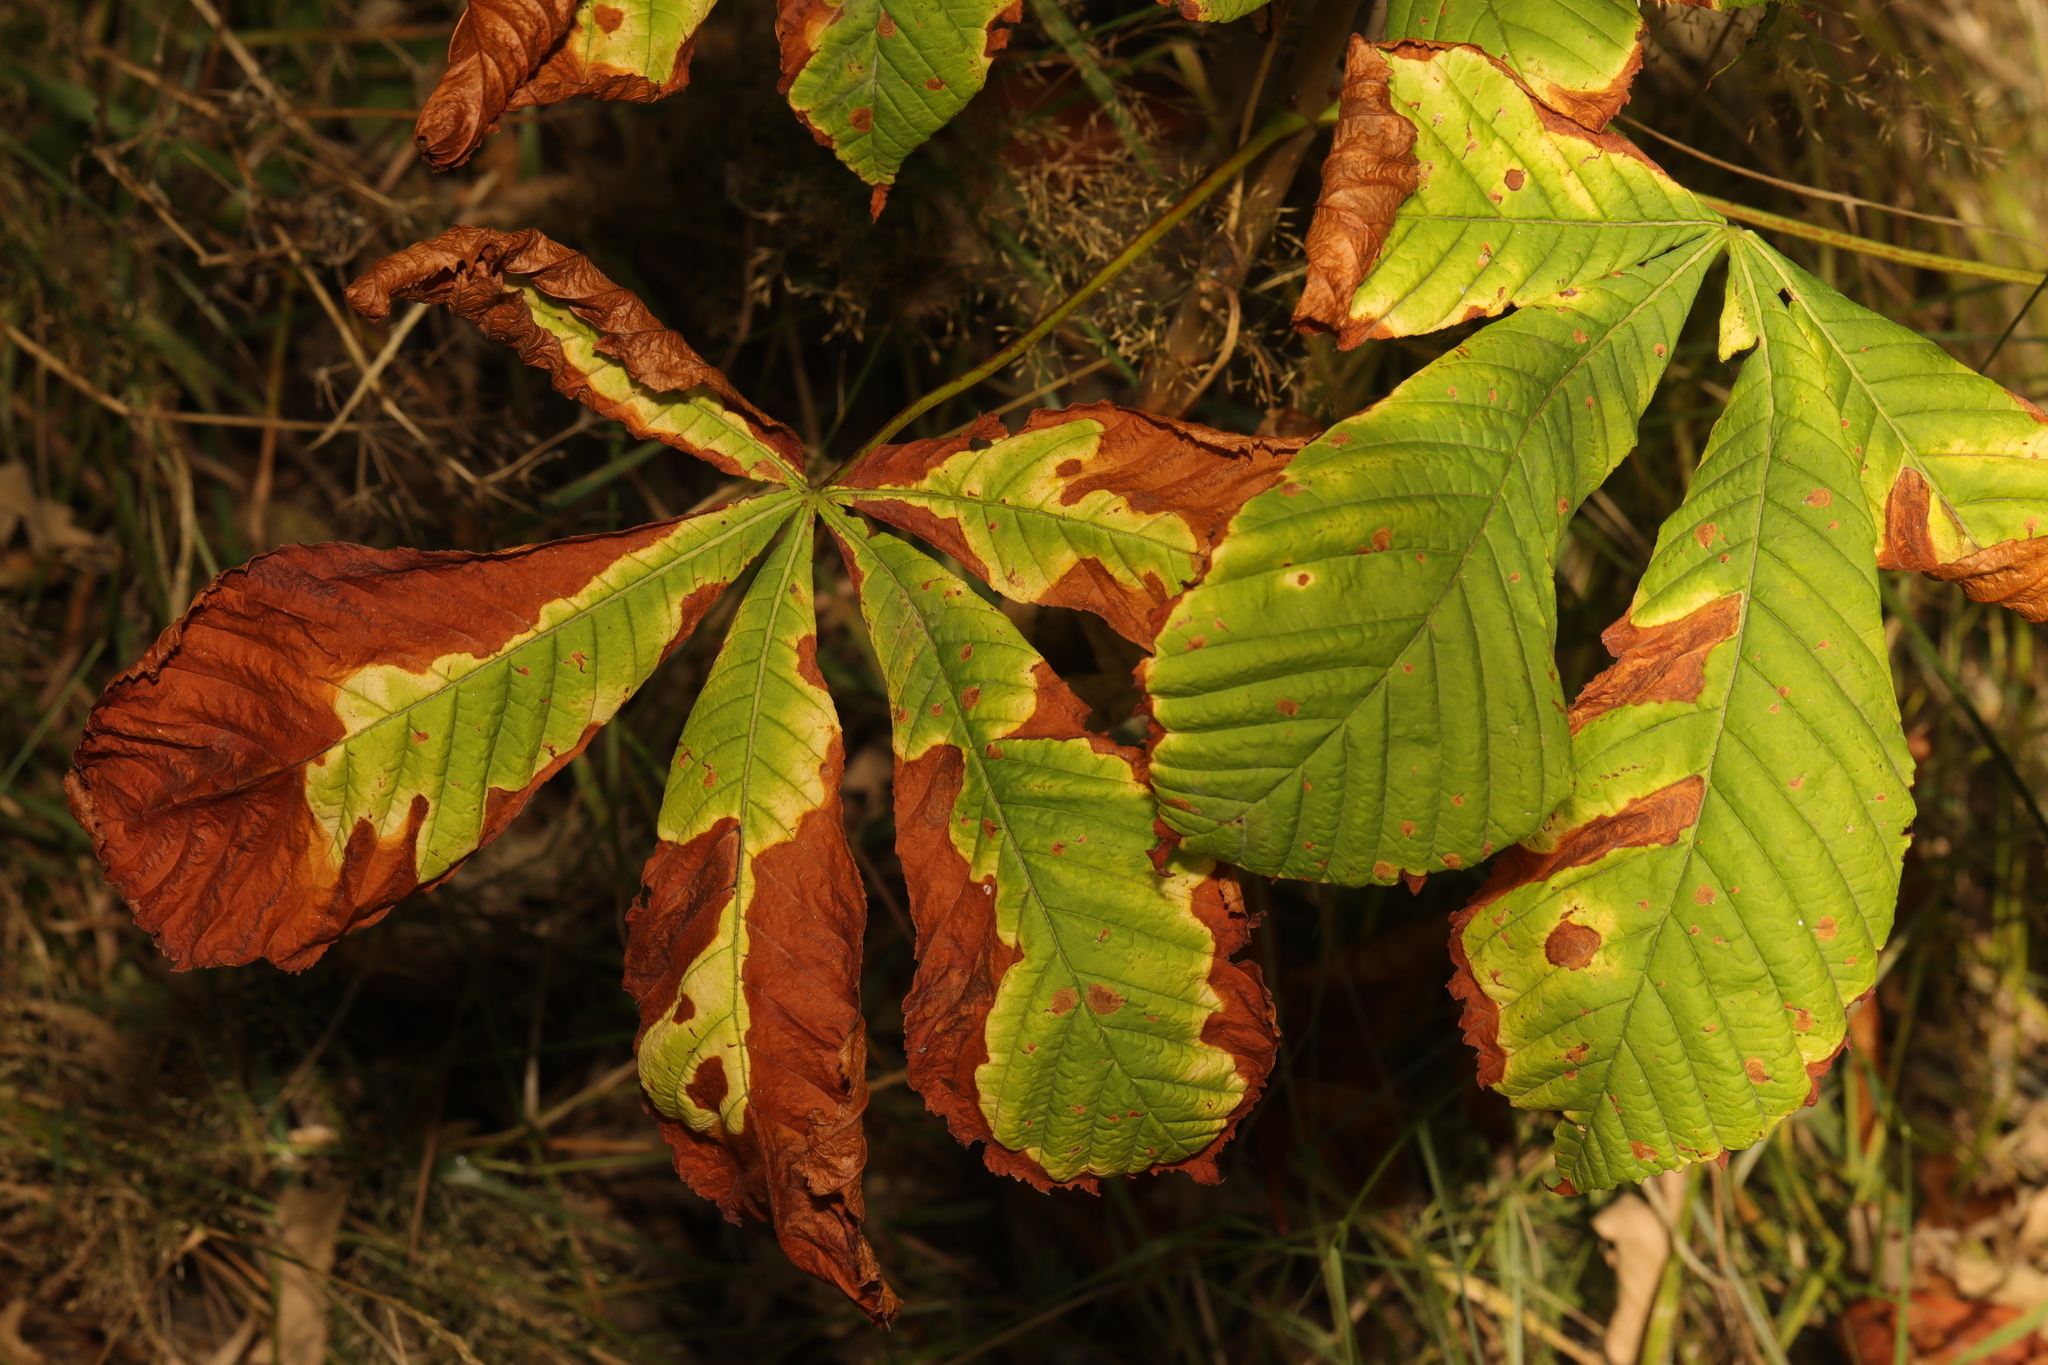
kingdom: Plantae
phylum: Tracheophyta
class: Magnoliopsida
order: Sapindales
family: Sapindaceae
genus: Aesculus
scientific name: Aesculus hippocastanum
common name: Horse-chestnut
